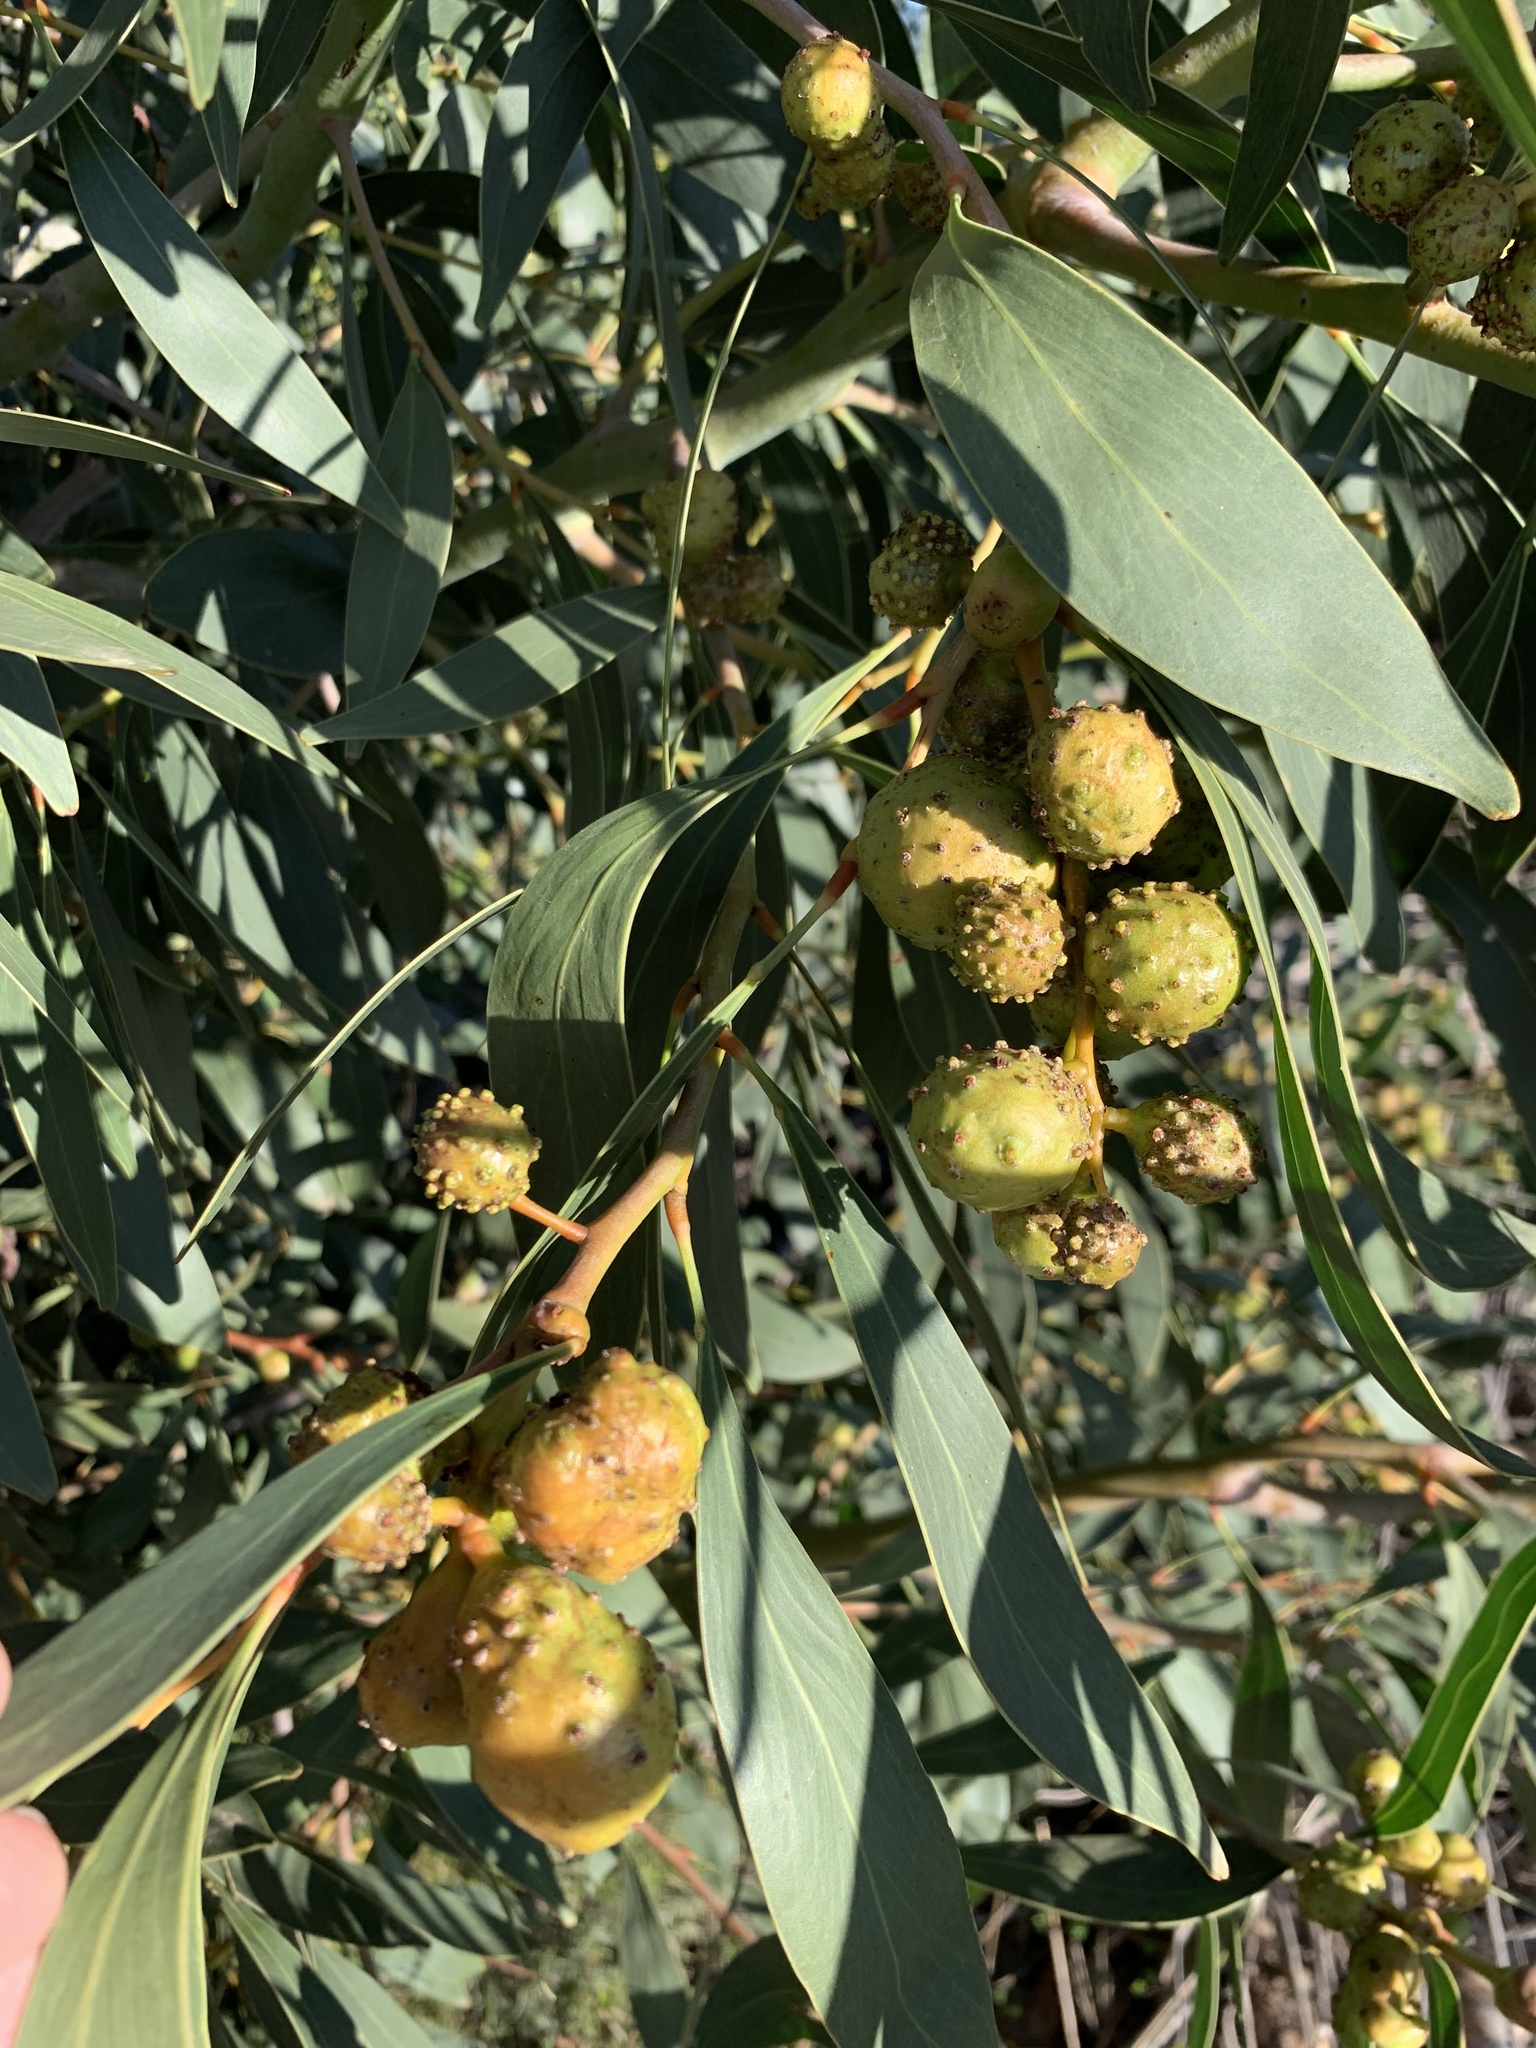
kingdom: Plantae
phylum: Tracheophyta
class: Magnoliopsida
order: Fabales
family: Fabaceae
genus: Acacia
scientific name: Acacia pycnantha
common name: Golden wattle
